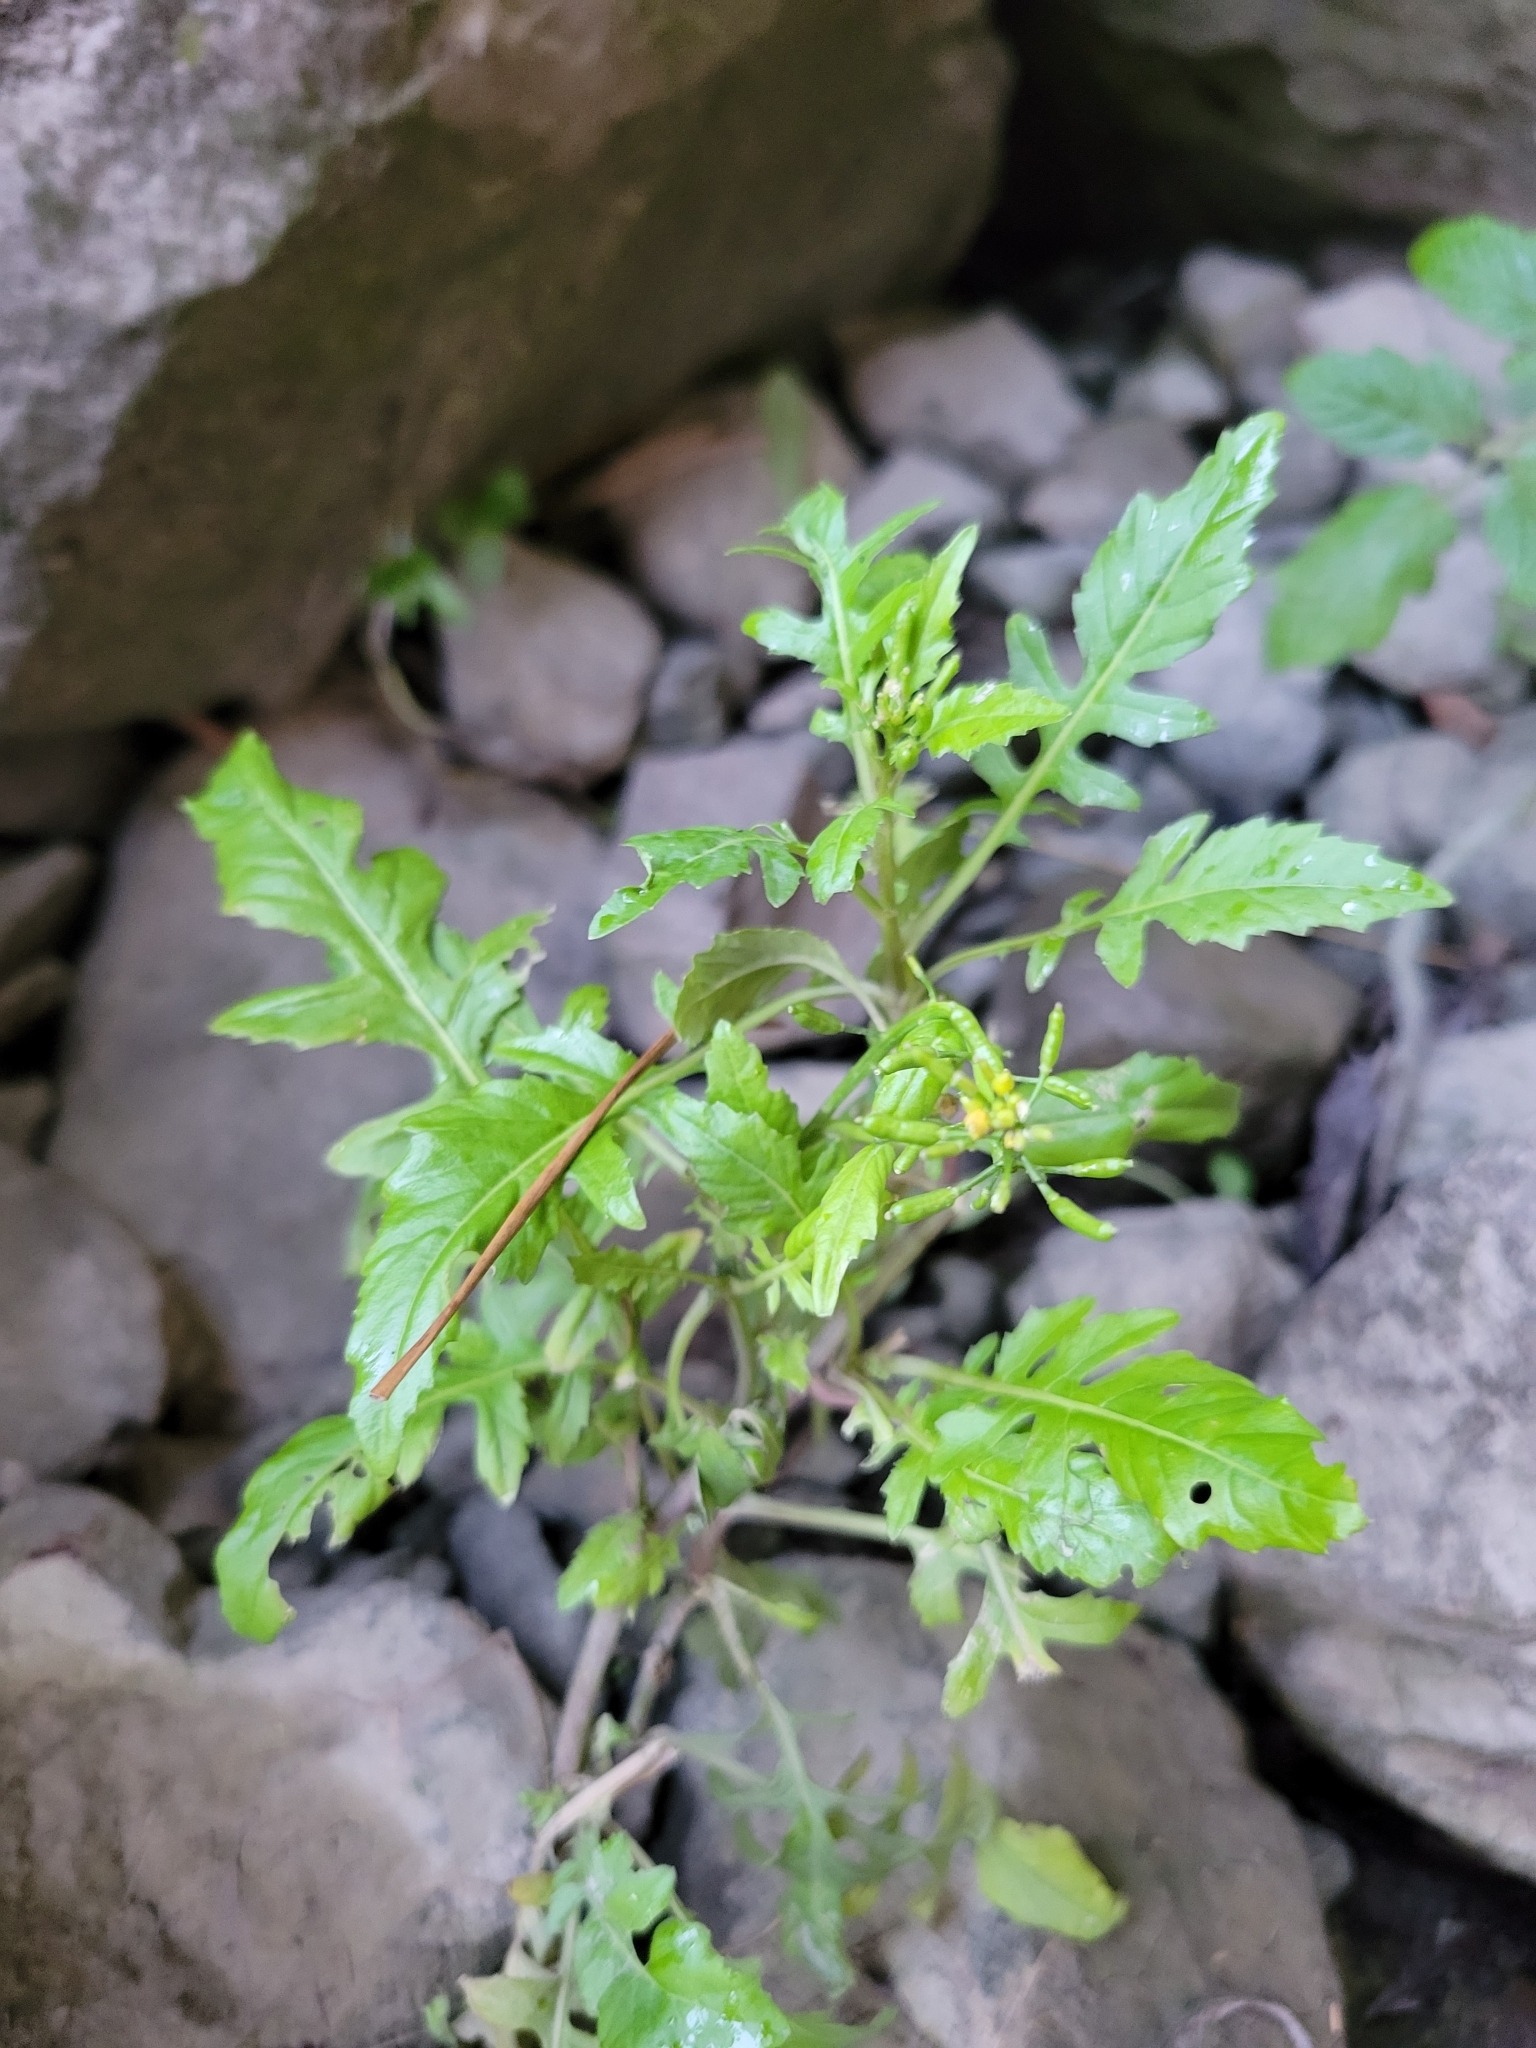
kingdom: Plantae
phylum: Tracheophyta
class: Magnoliopsida
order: Brassicales
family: Brassicaceae
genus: Rorippa
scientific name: Rorippa palustris
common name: Marsh yellow-cress
